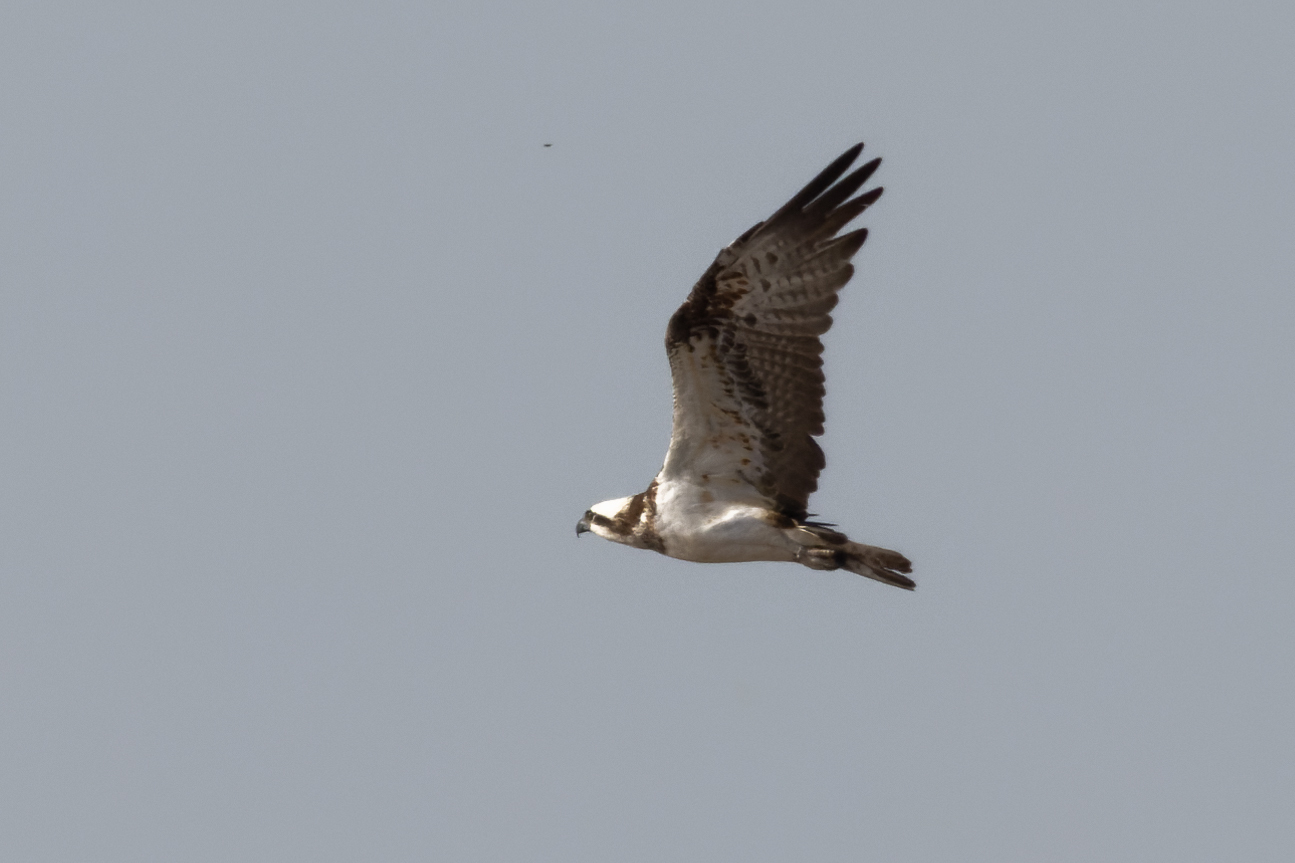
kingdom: Animalia
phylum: Chordata
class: Aves
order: Accipitriformes
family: Pandionidae
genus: Pandion
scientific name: Pandion haliaetus
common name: Osprey
